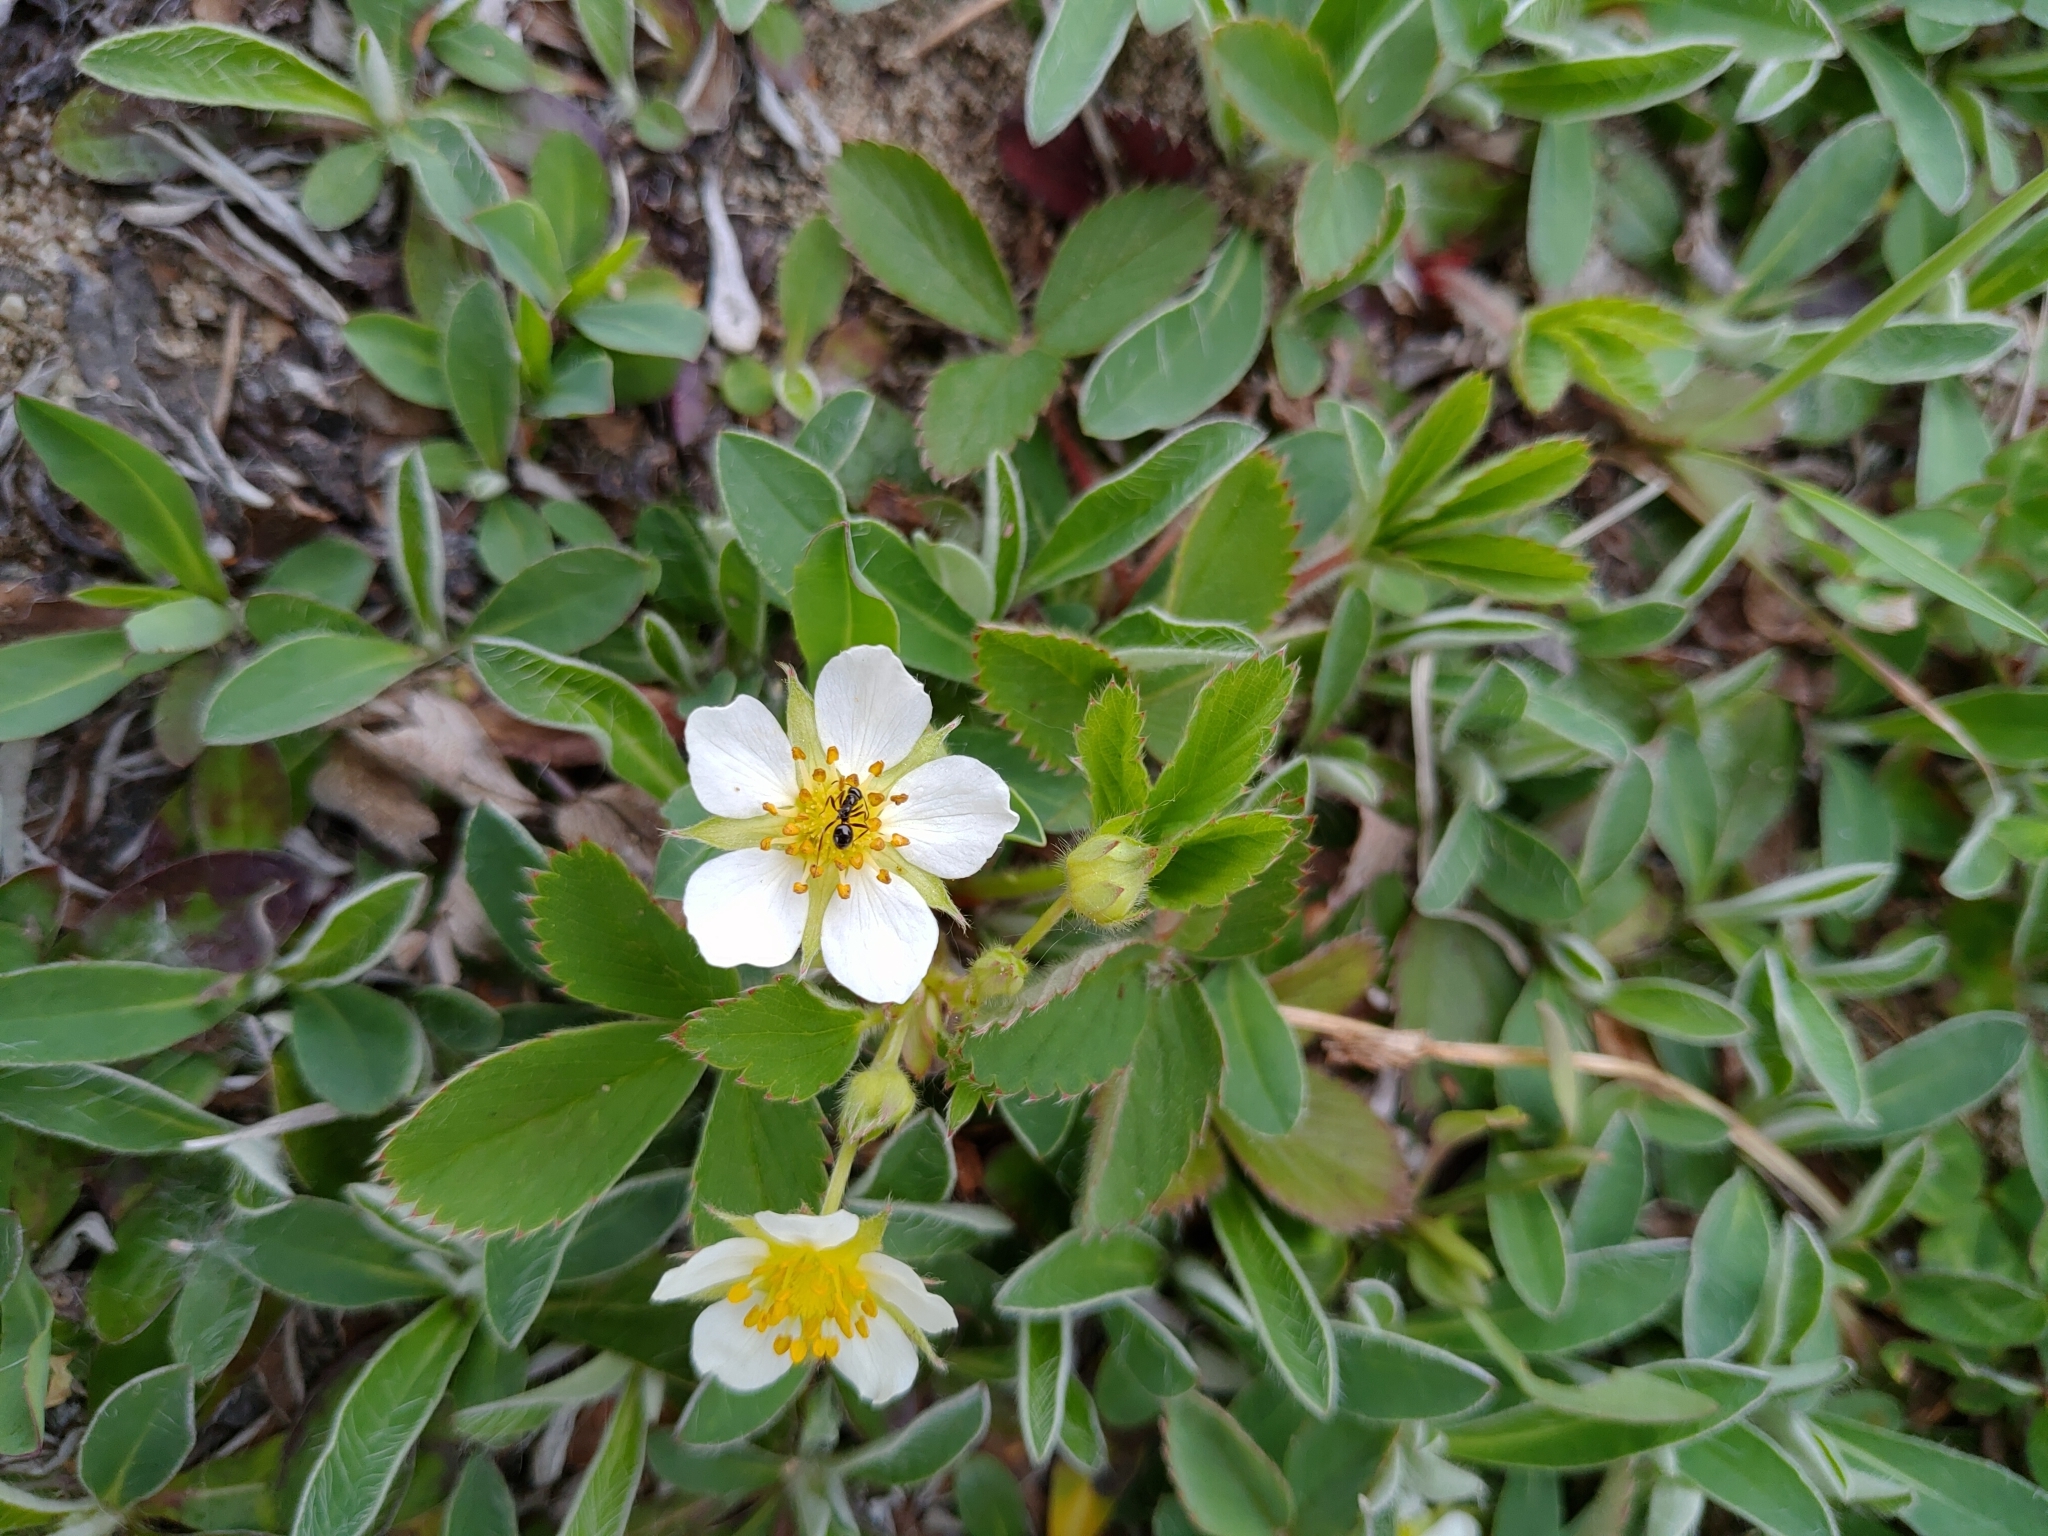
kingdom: Plantae
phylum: Tracheophyta
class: Magnoliopsida
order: Rosales
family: Rosaceae
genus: Fragaria
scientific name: Fragaria virginiana
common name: Thickleaved wild strawberry
